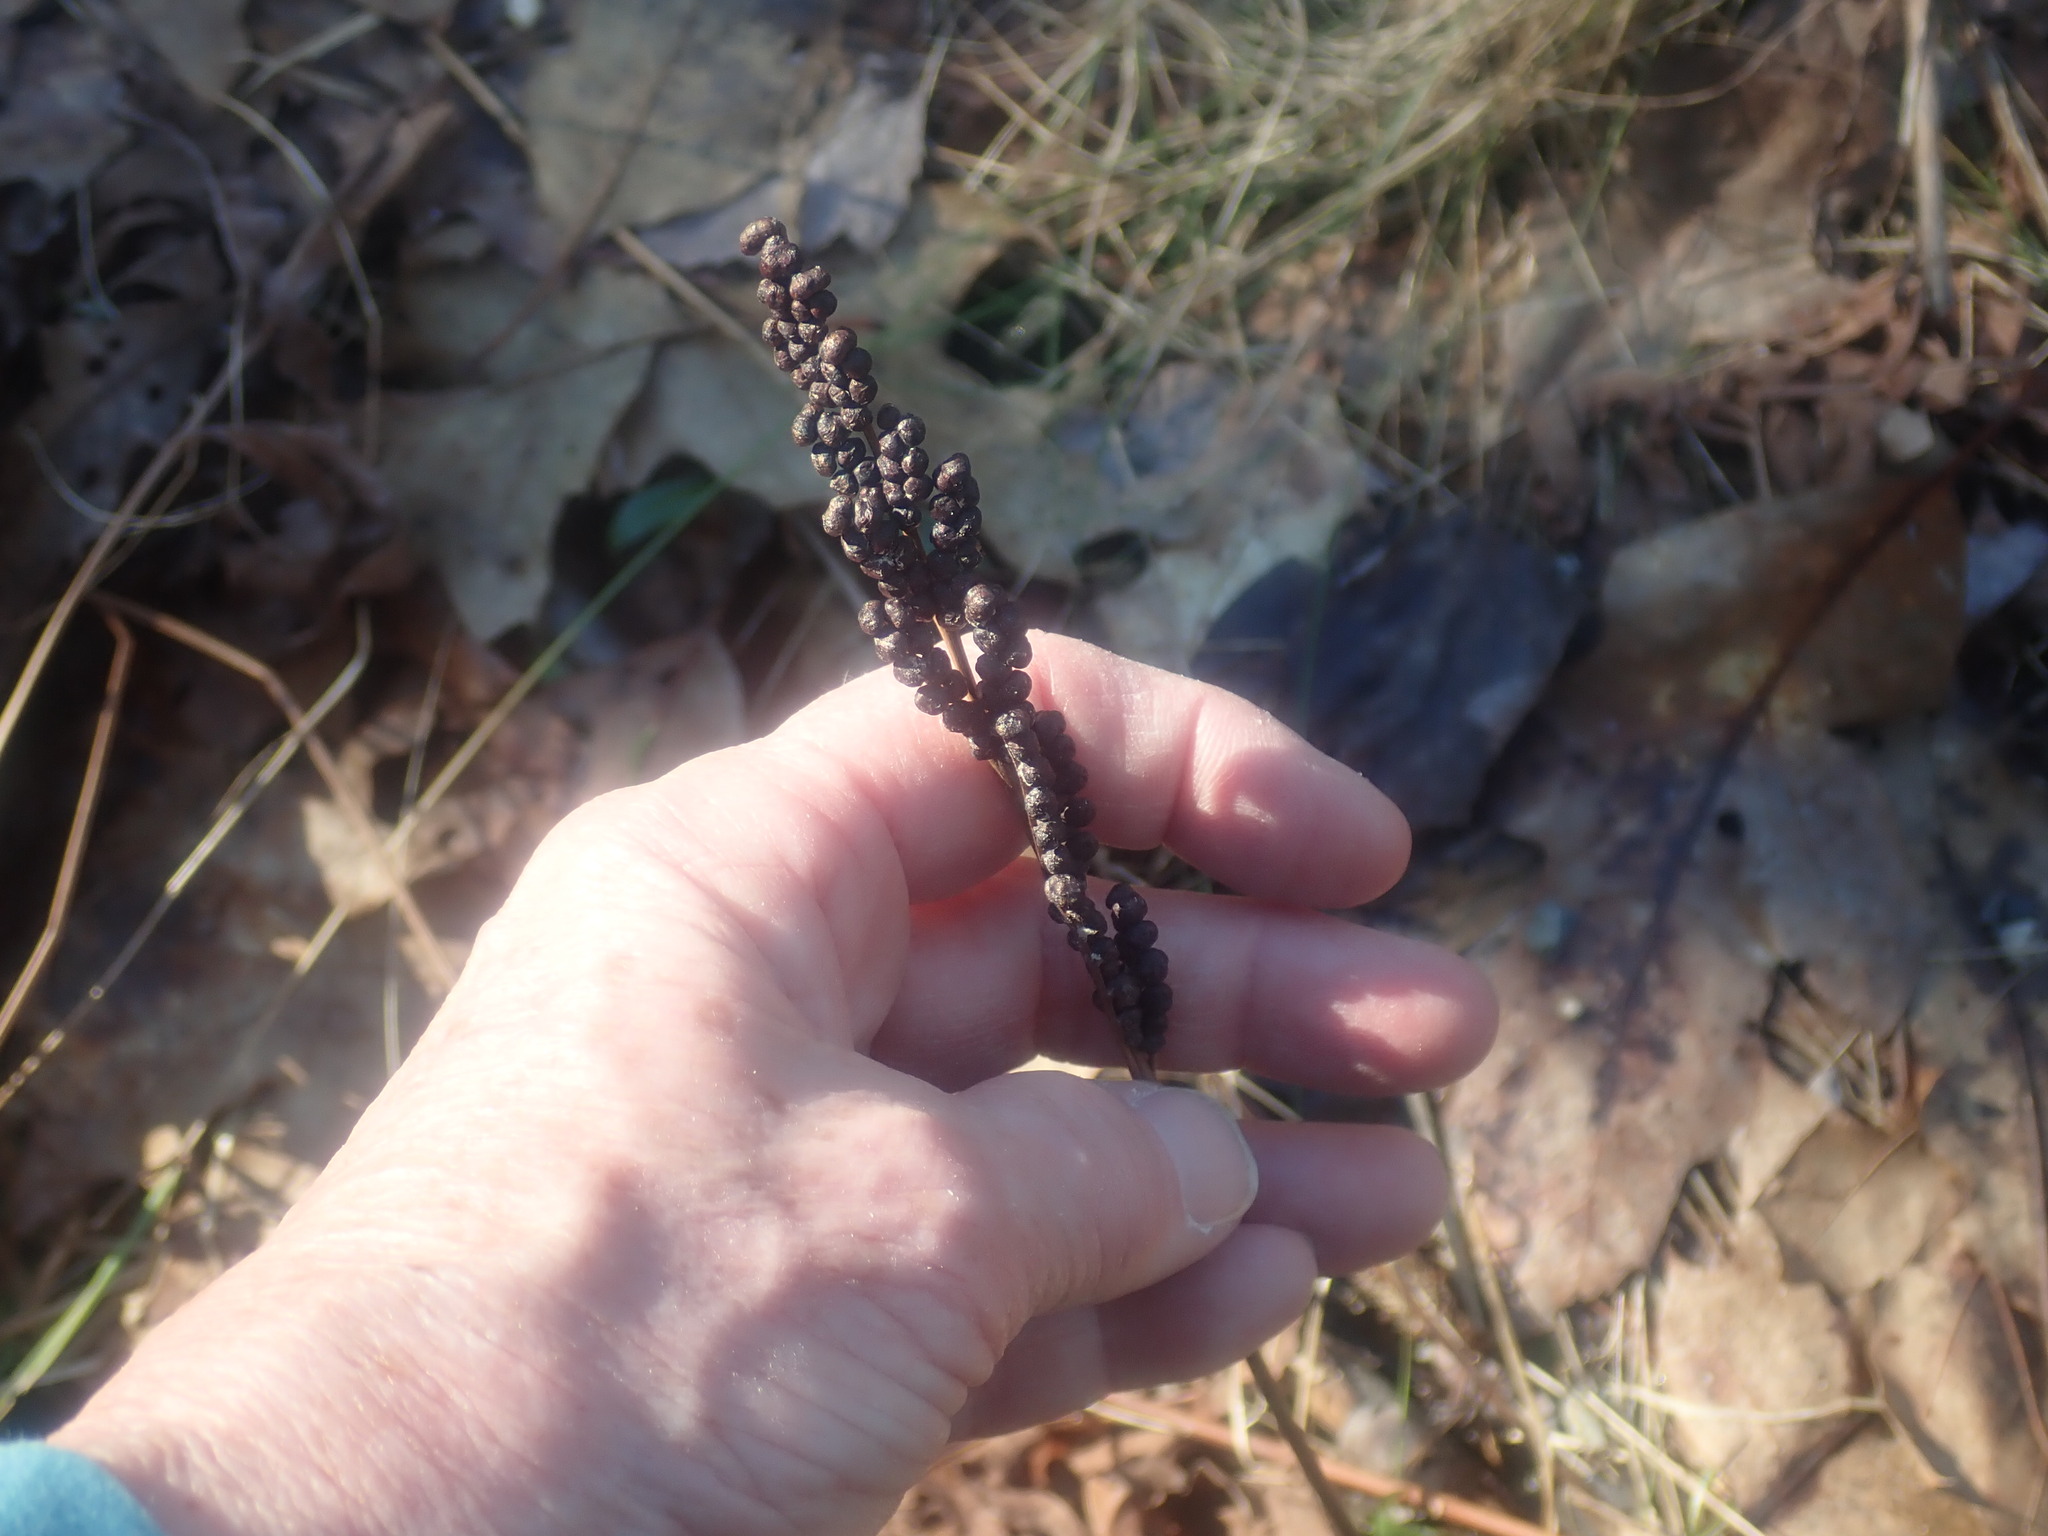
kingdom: Plantae
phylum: Tracheophyta
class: Polypodiopsida
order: Polypodiales
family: Onocleaceae
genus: Onoclea
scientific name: Onoclea sensibilis
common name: Sensitive fern
